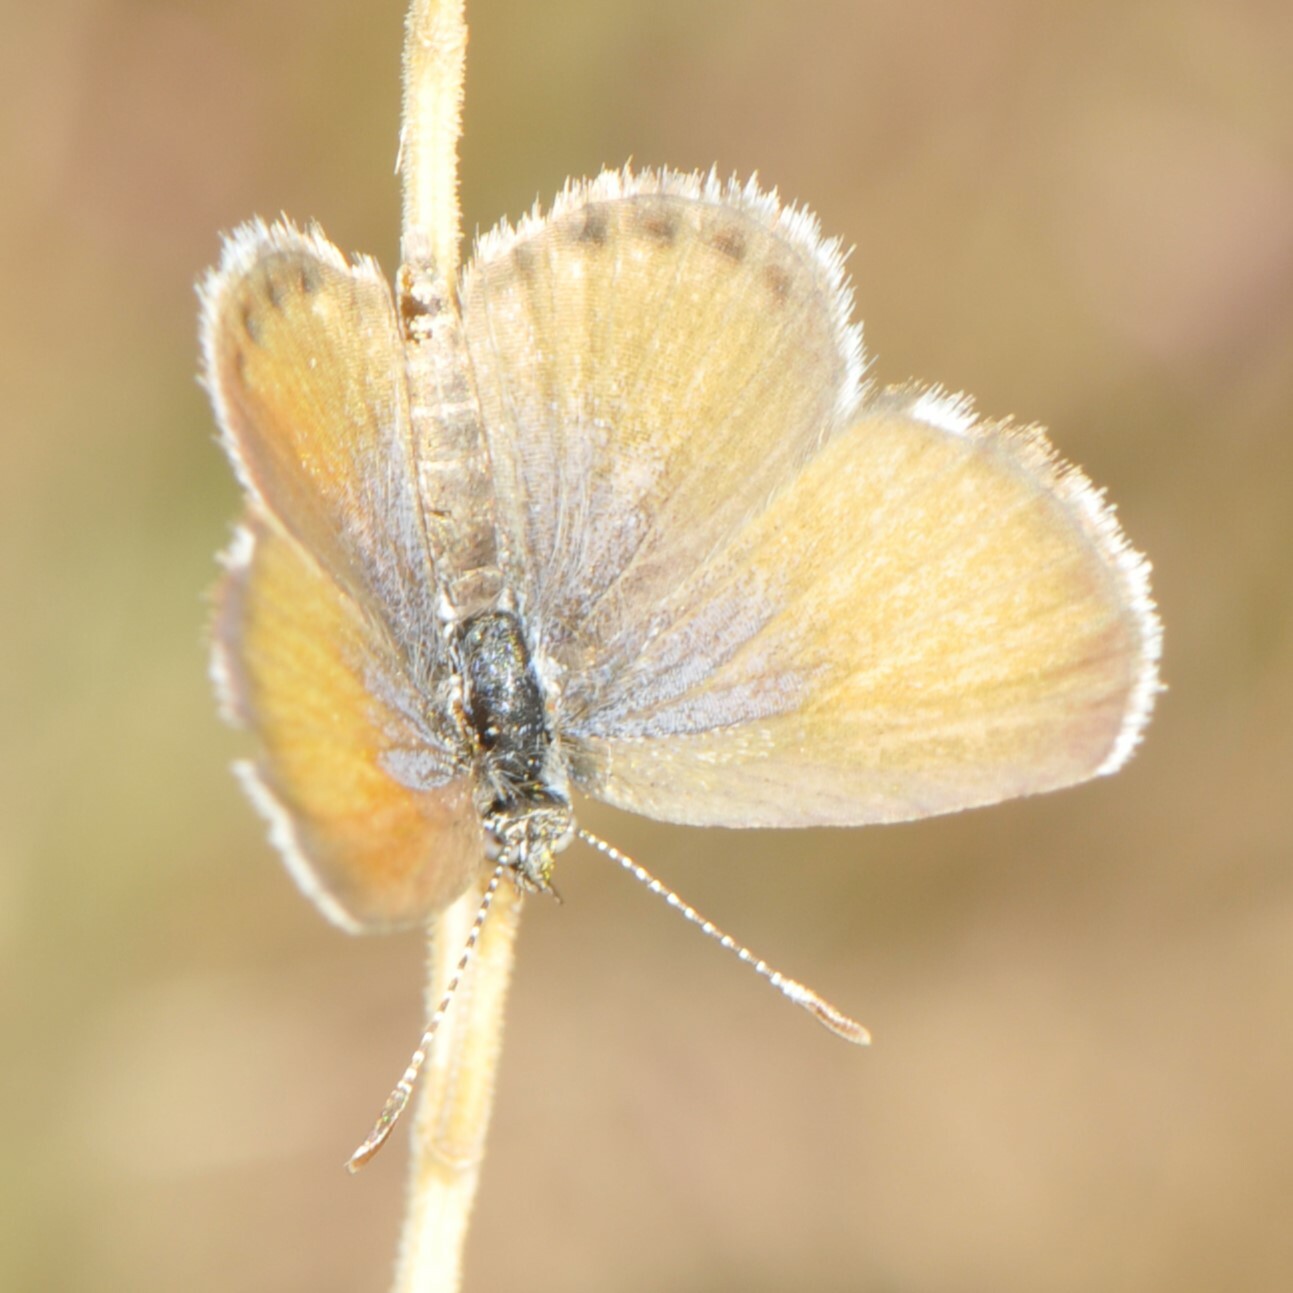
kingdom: Animalia
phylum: Arthropoda
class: Insecta
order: Lepidoptera
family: Lycaenidae
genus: Brephidium
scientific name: Brephidium exilis
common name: Pygmy blue
